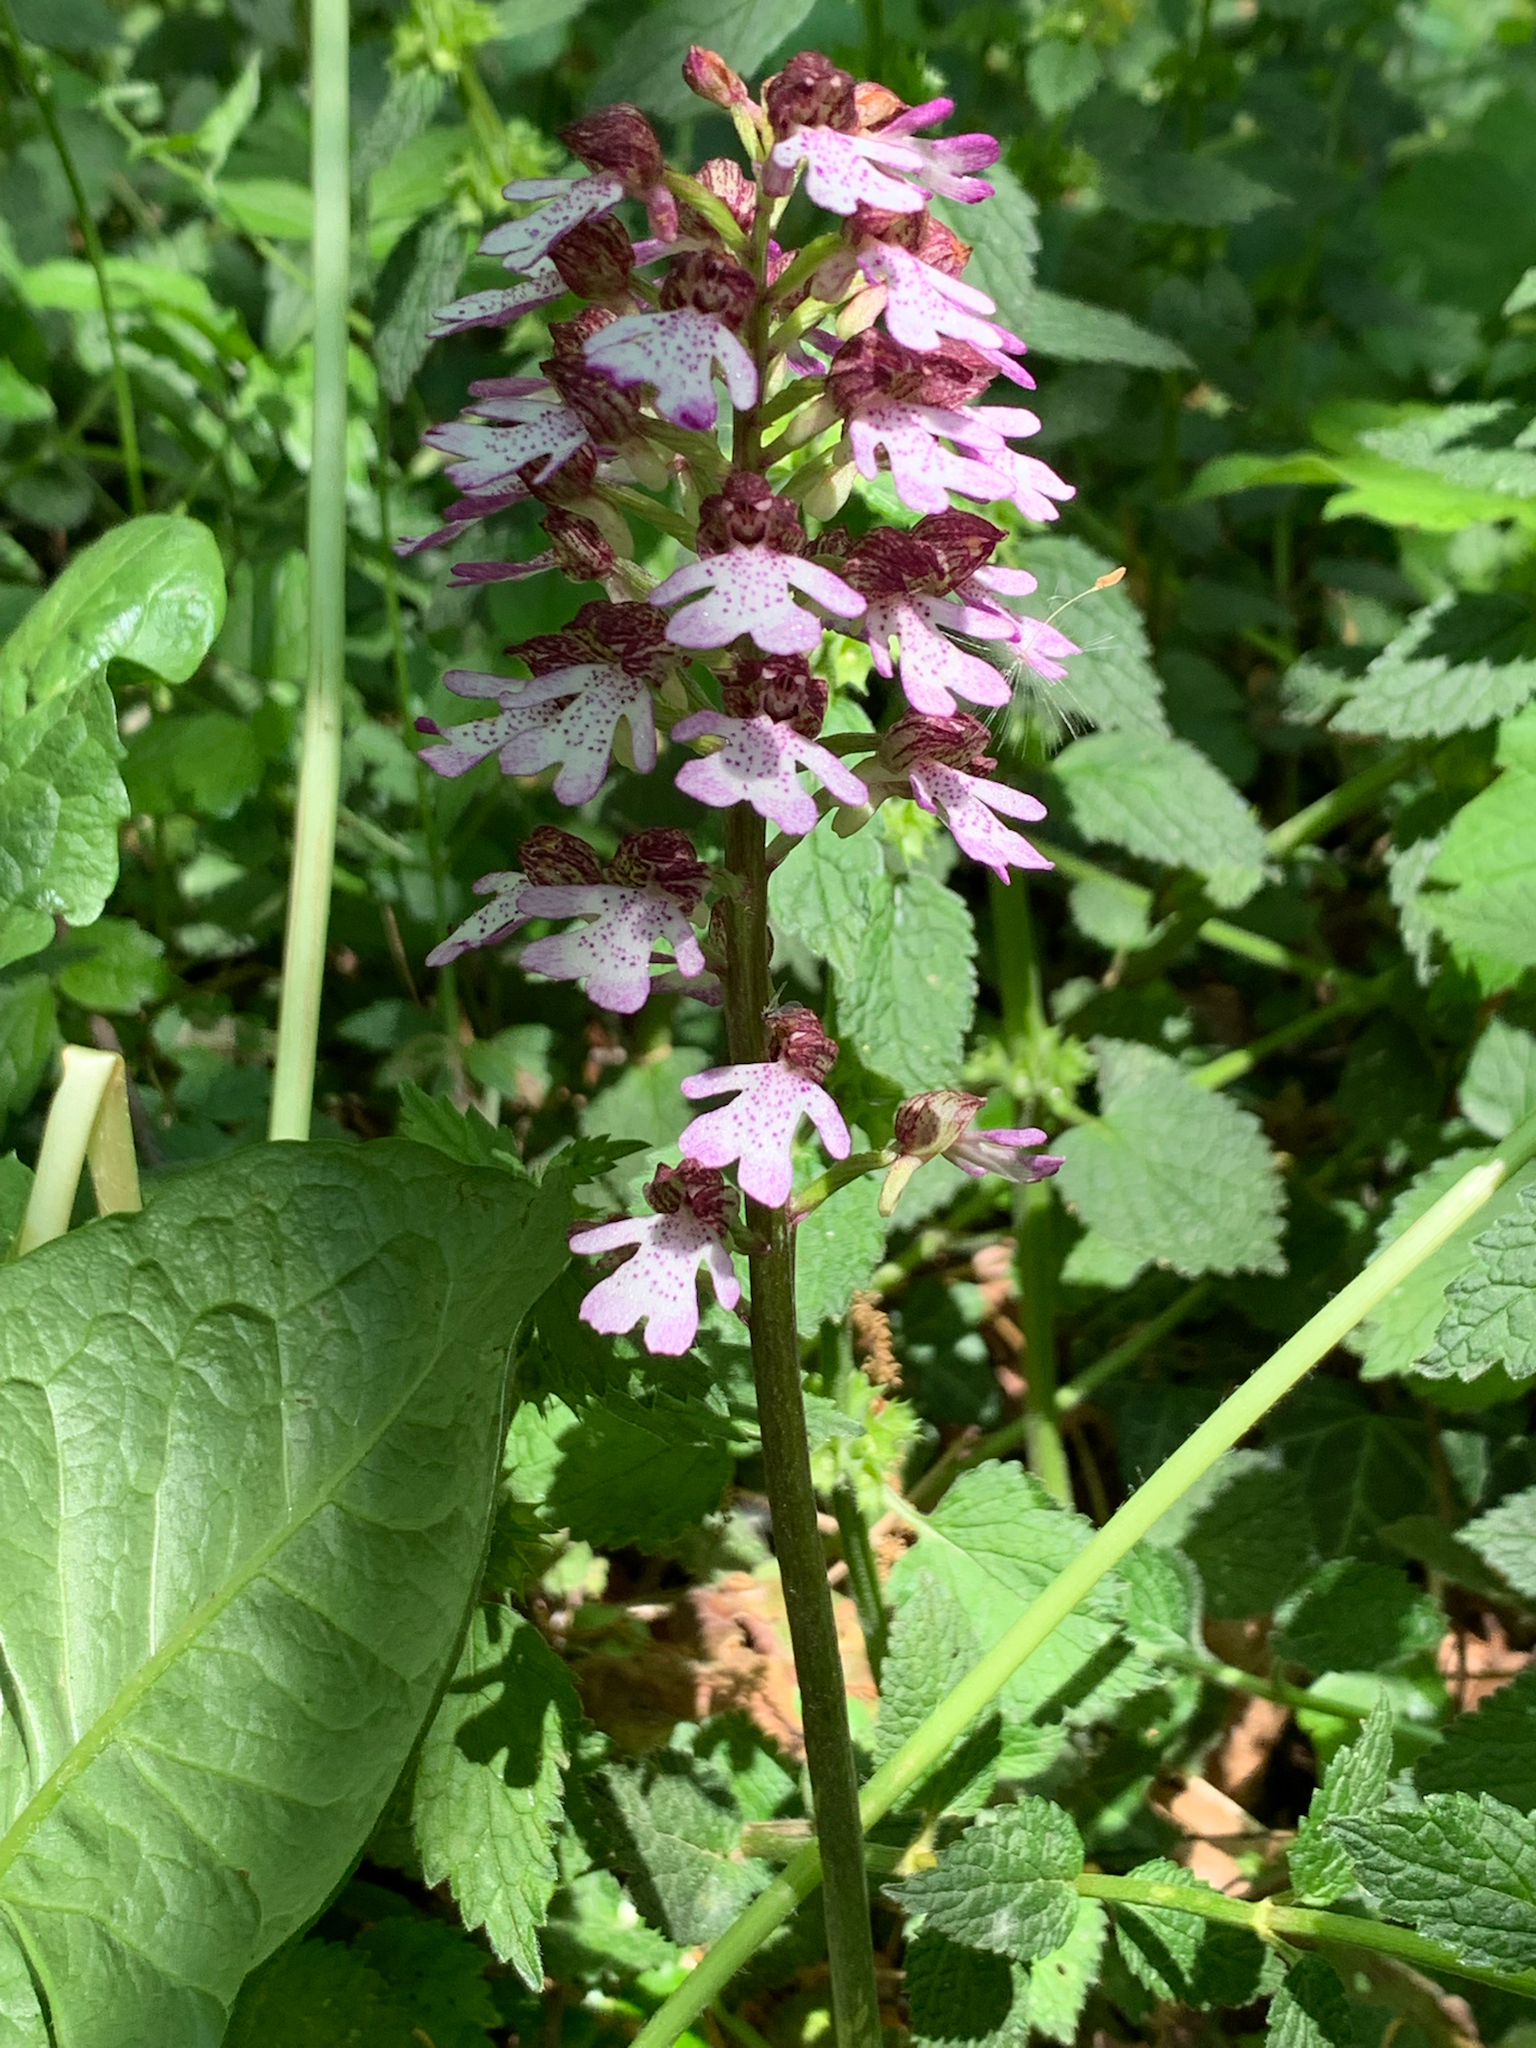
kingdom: Plantae
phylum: Tracheophyta
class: Liliopsida
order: Asparagales
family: Orchidaceae
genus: Orchis
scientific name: Orchis purpurea
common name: Lady orchid
